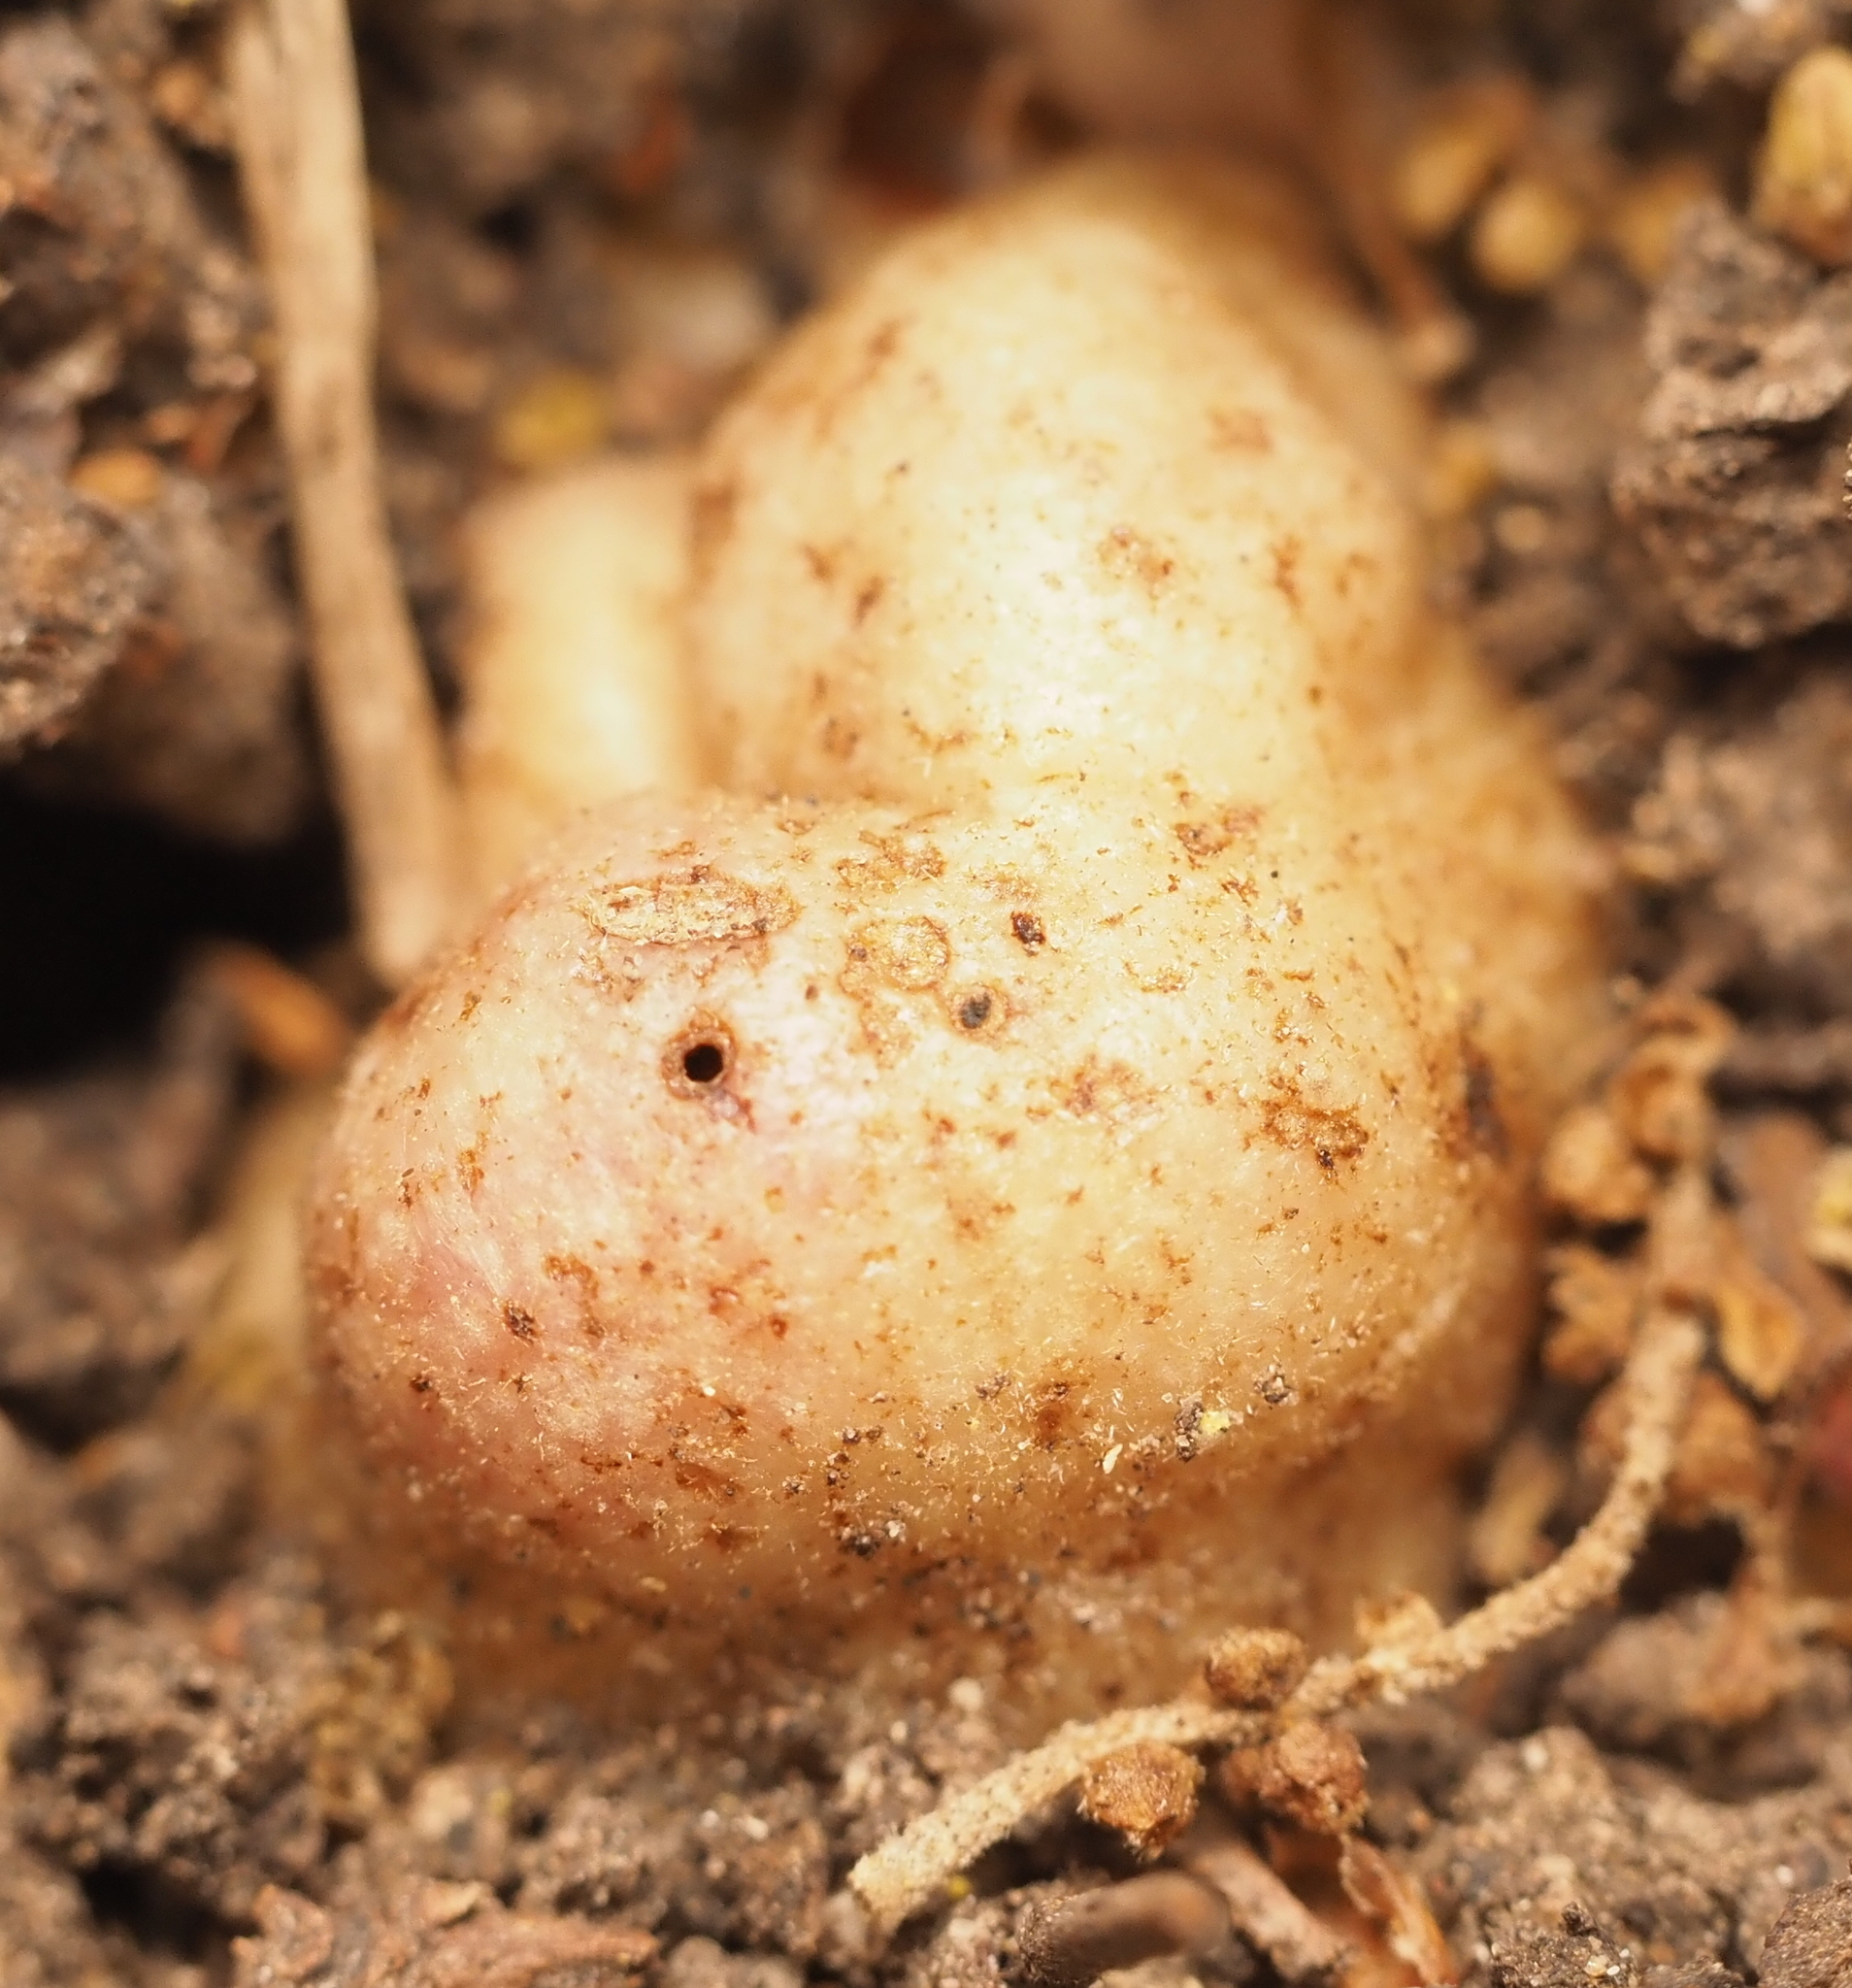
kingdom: Animalia
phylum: Arthropoda
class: Insecta
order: Hymenoptera
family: Cynipidae
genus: Belonocnema
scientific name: Belonocnema kinseyi
